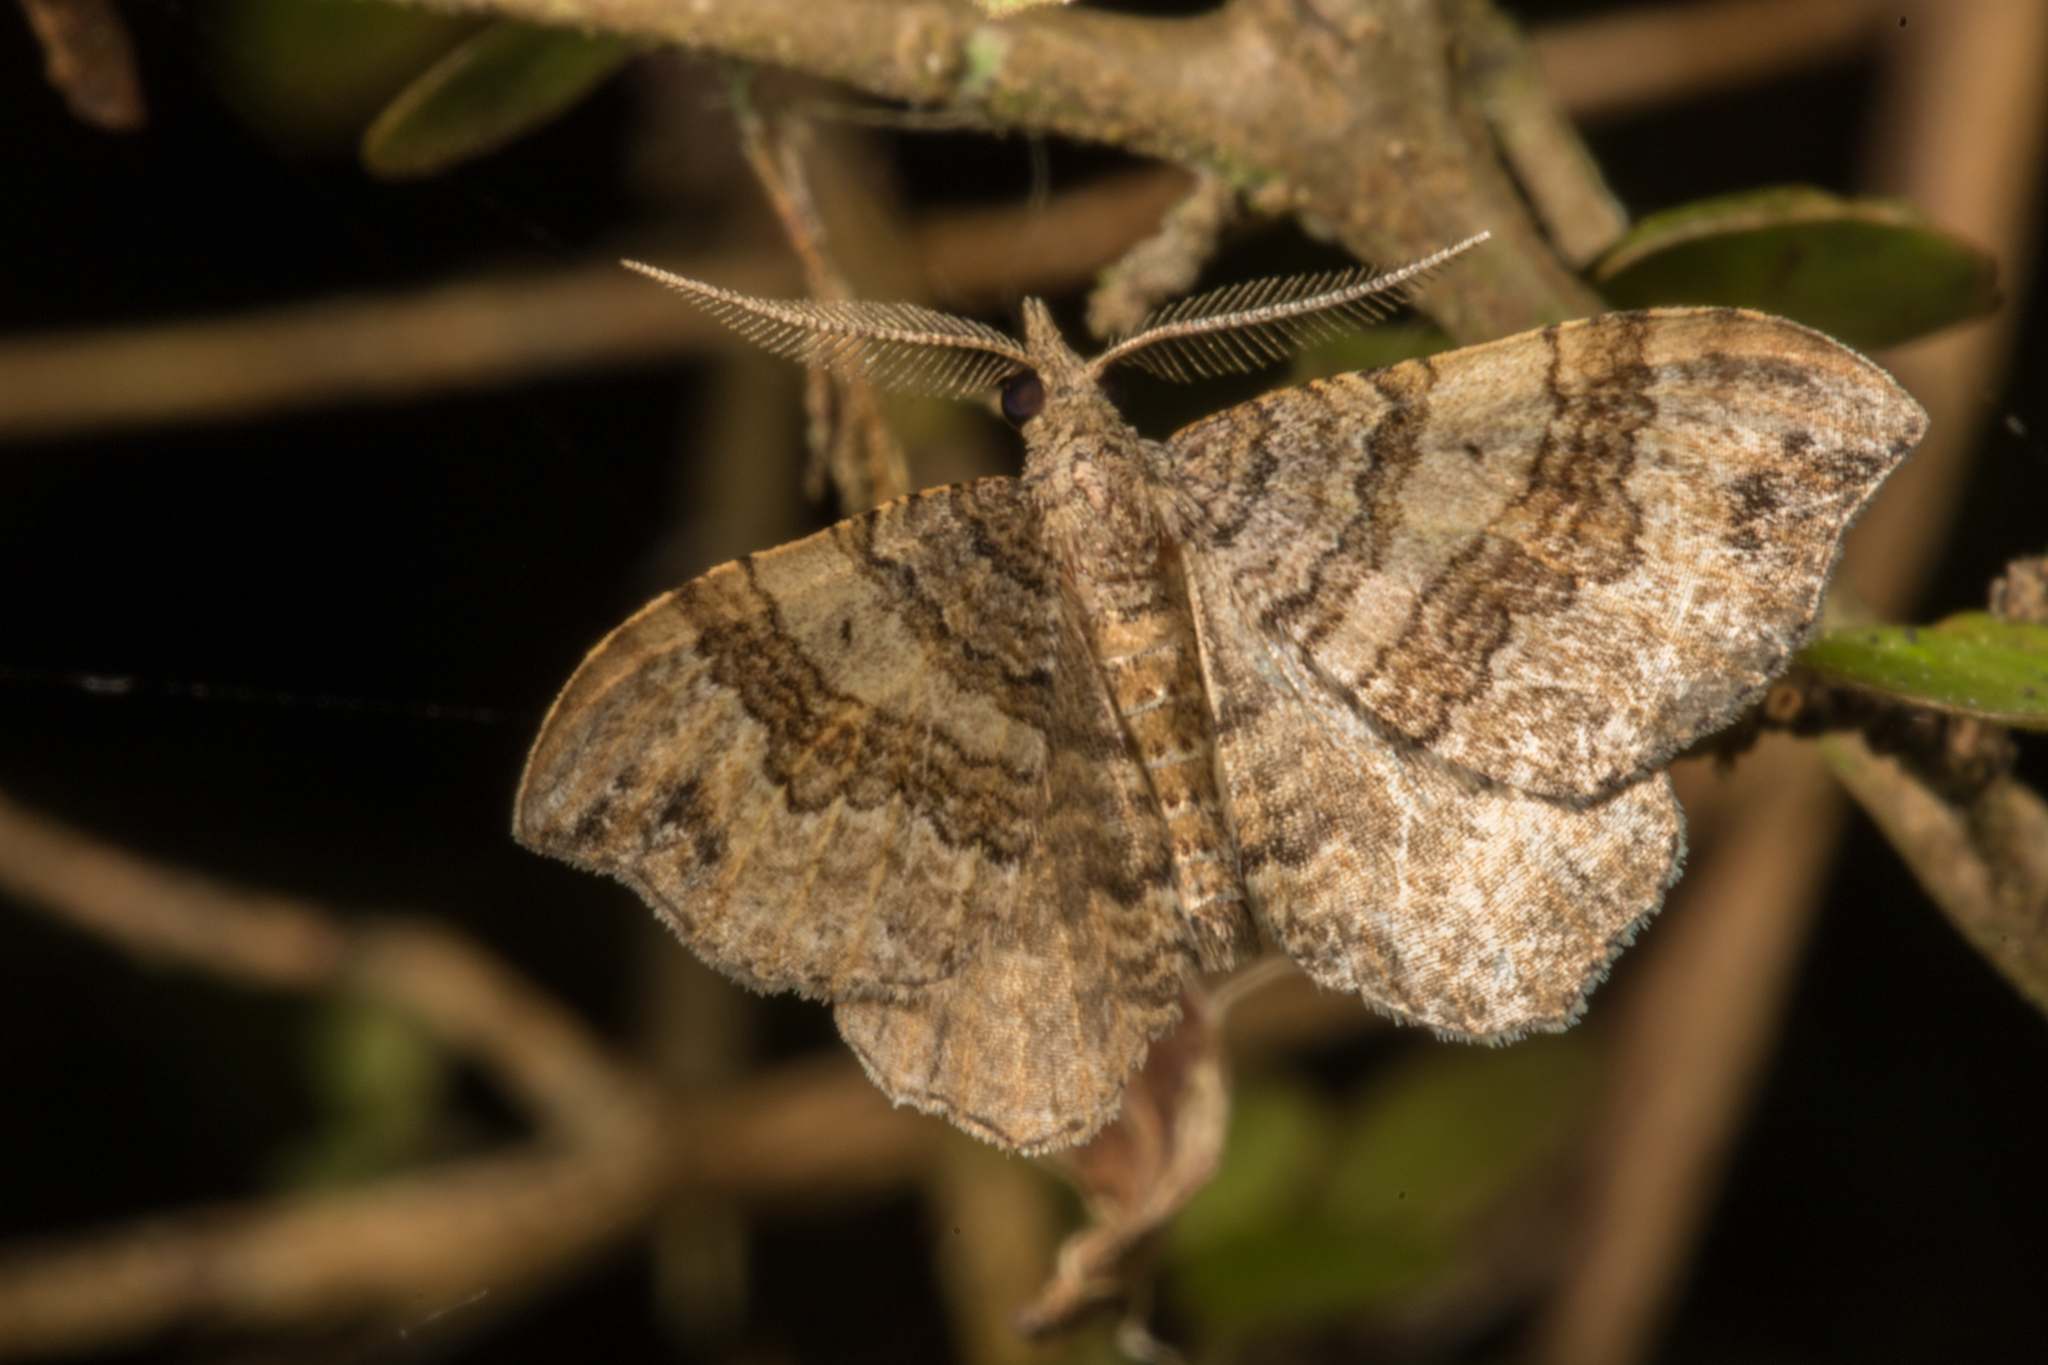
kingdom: Animalia
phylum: Arthropoda
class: Insecta
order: Lepidoptera
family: Geometridae
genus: Homodotis
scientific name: Homodotis megaspilata
